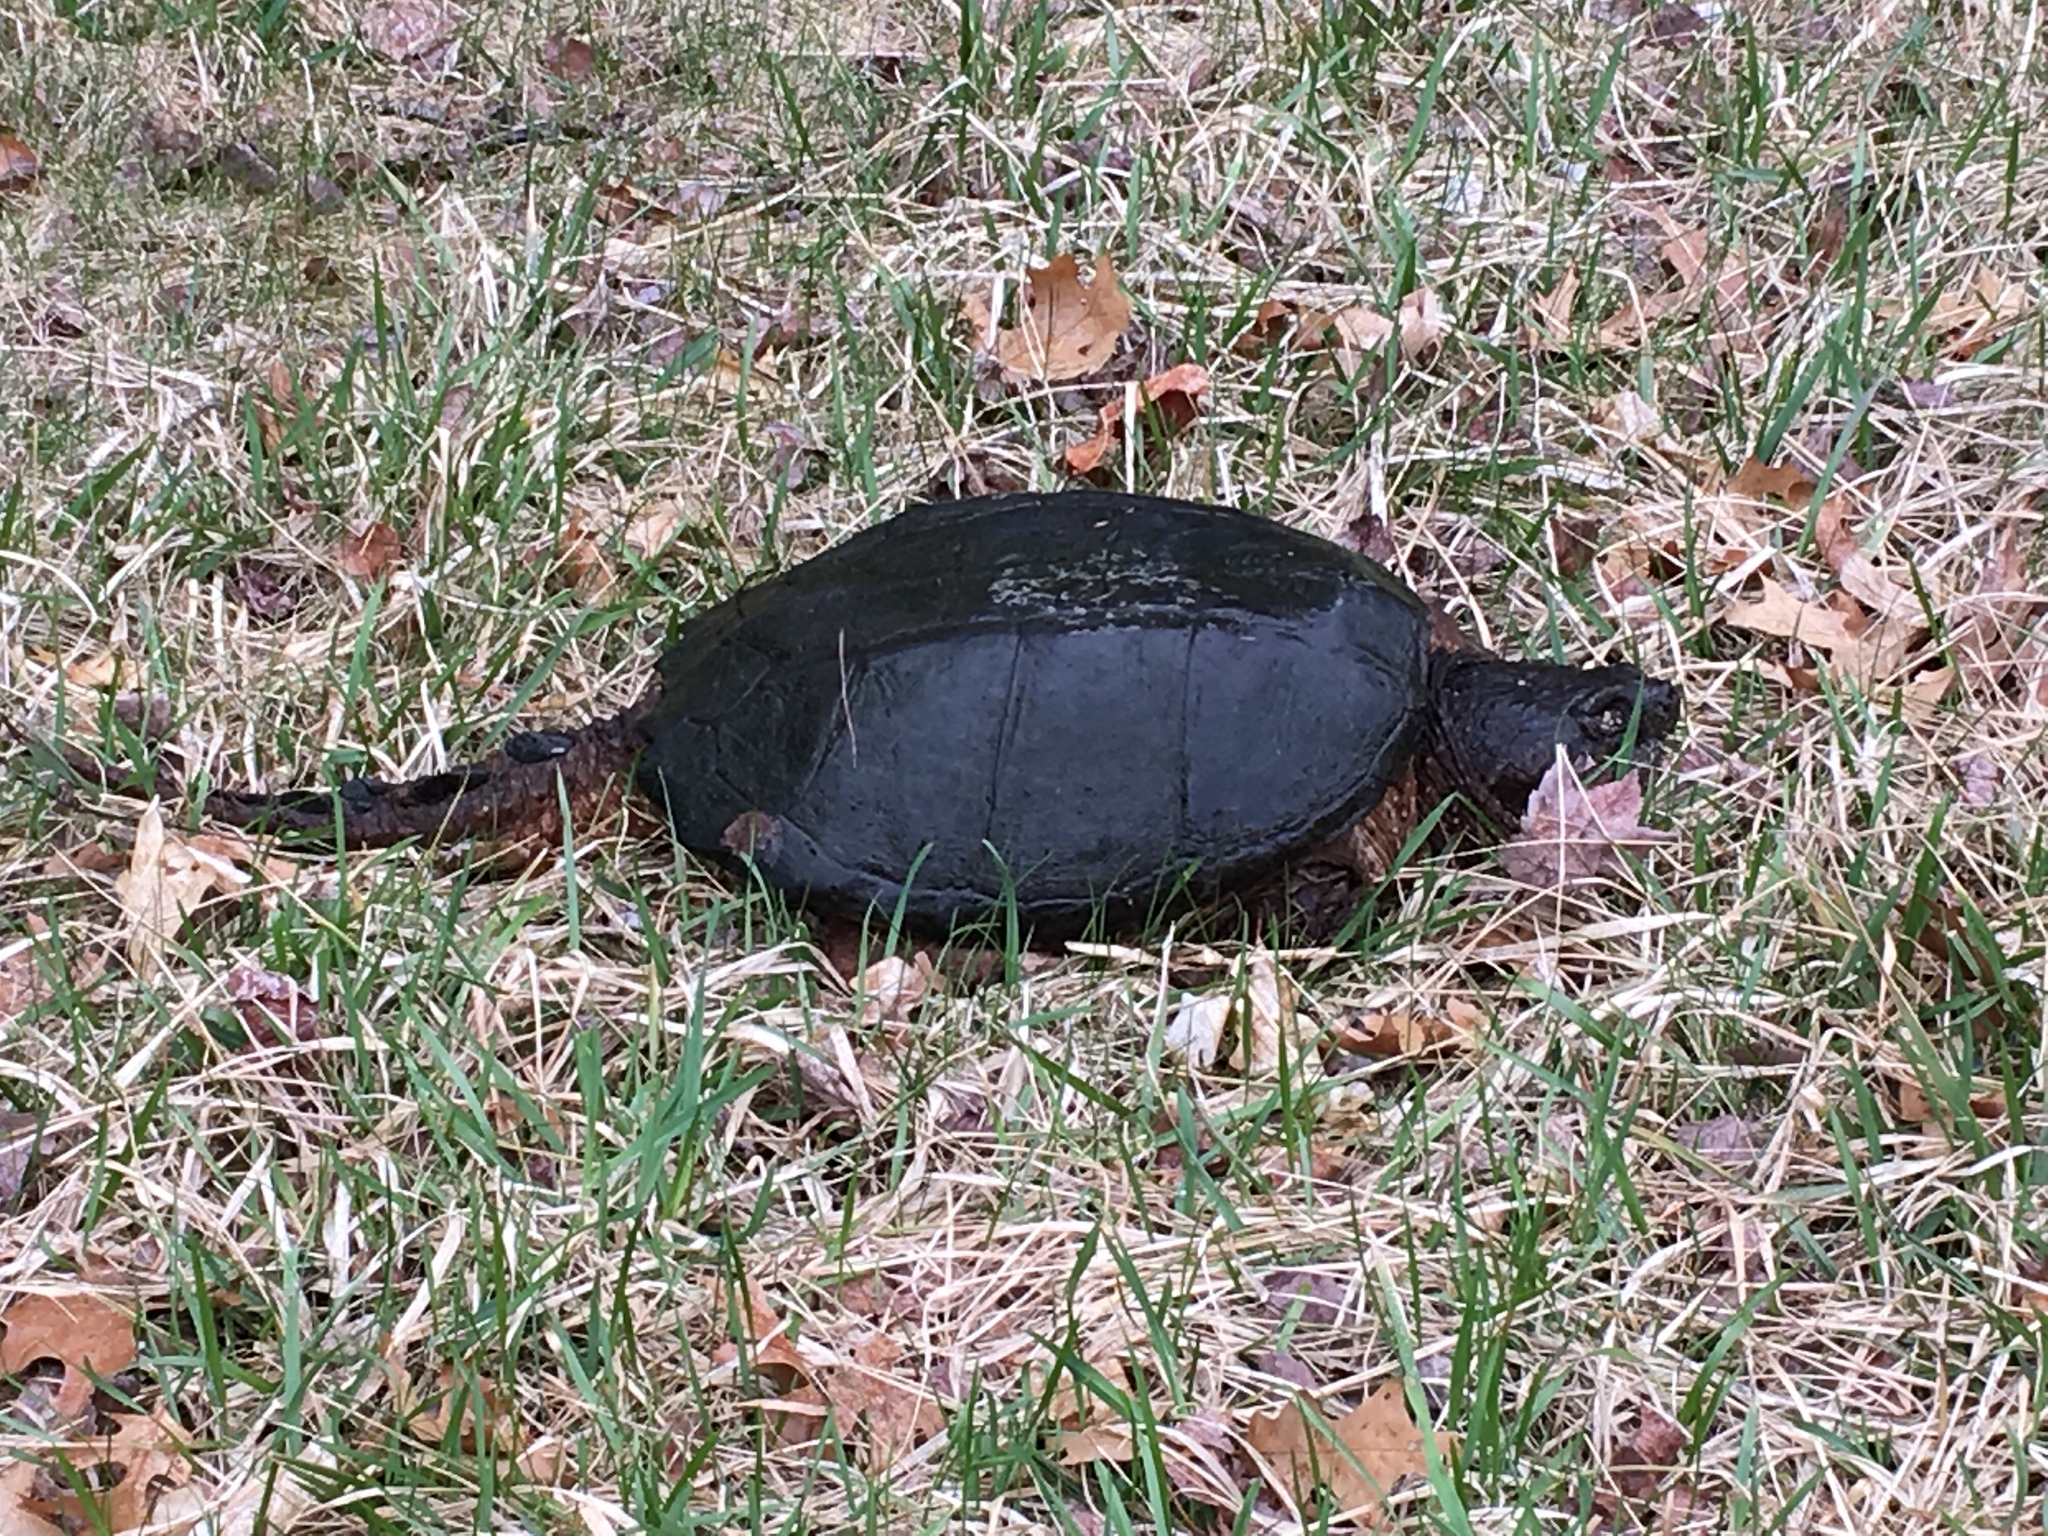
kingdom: Animalia
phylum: Chordata
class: Testudines
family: Chelydridae
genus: Chelydra
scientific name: Chelydra serpentina
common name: Common snapping turtle
